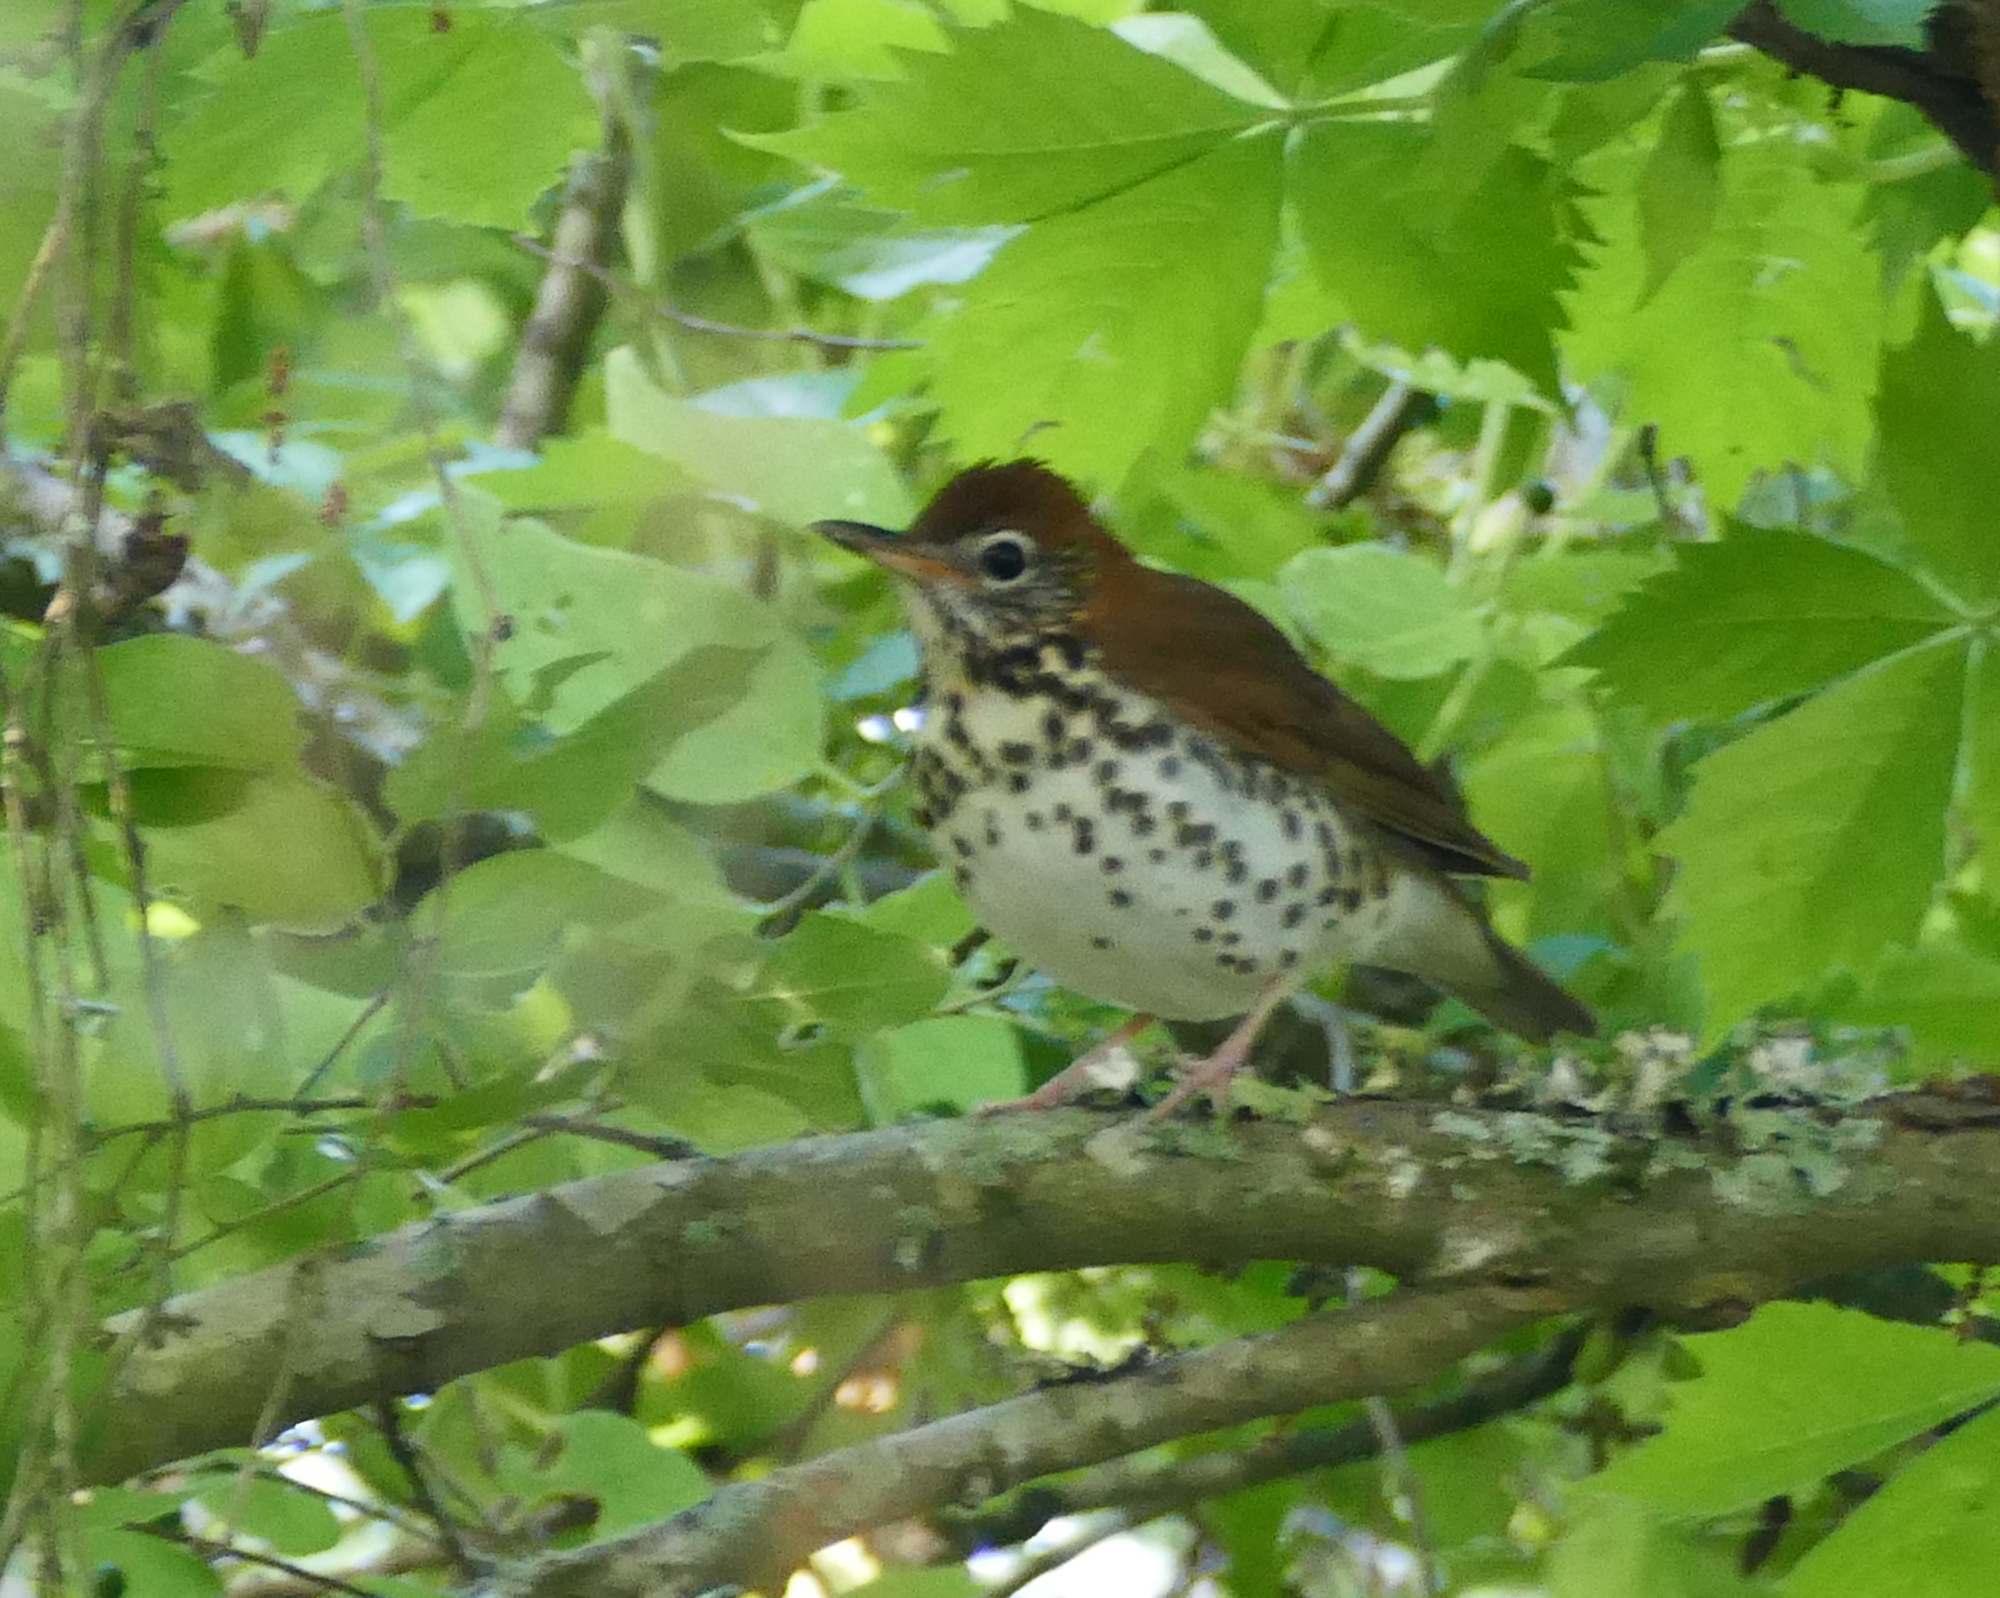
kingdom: Animalia
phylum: Chordata
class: Aves
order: Passeriformes
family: Turdidae
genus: Hylocichla
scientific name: Hylocichla mustelina
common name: Wood thrush
